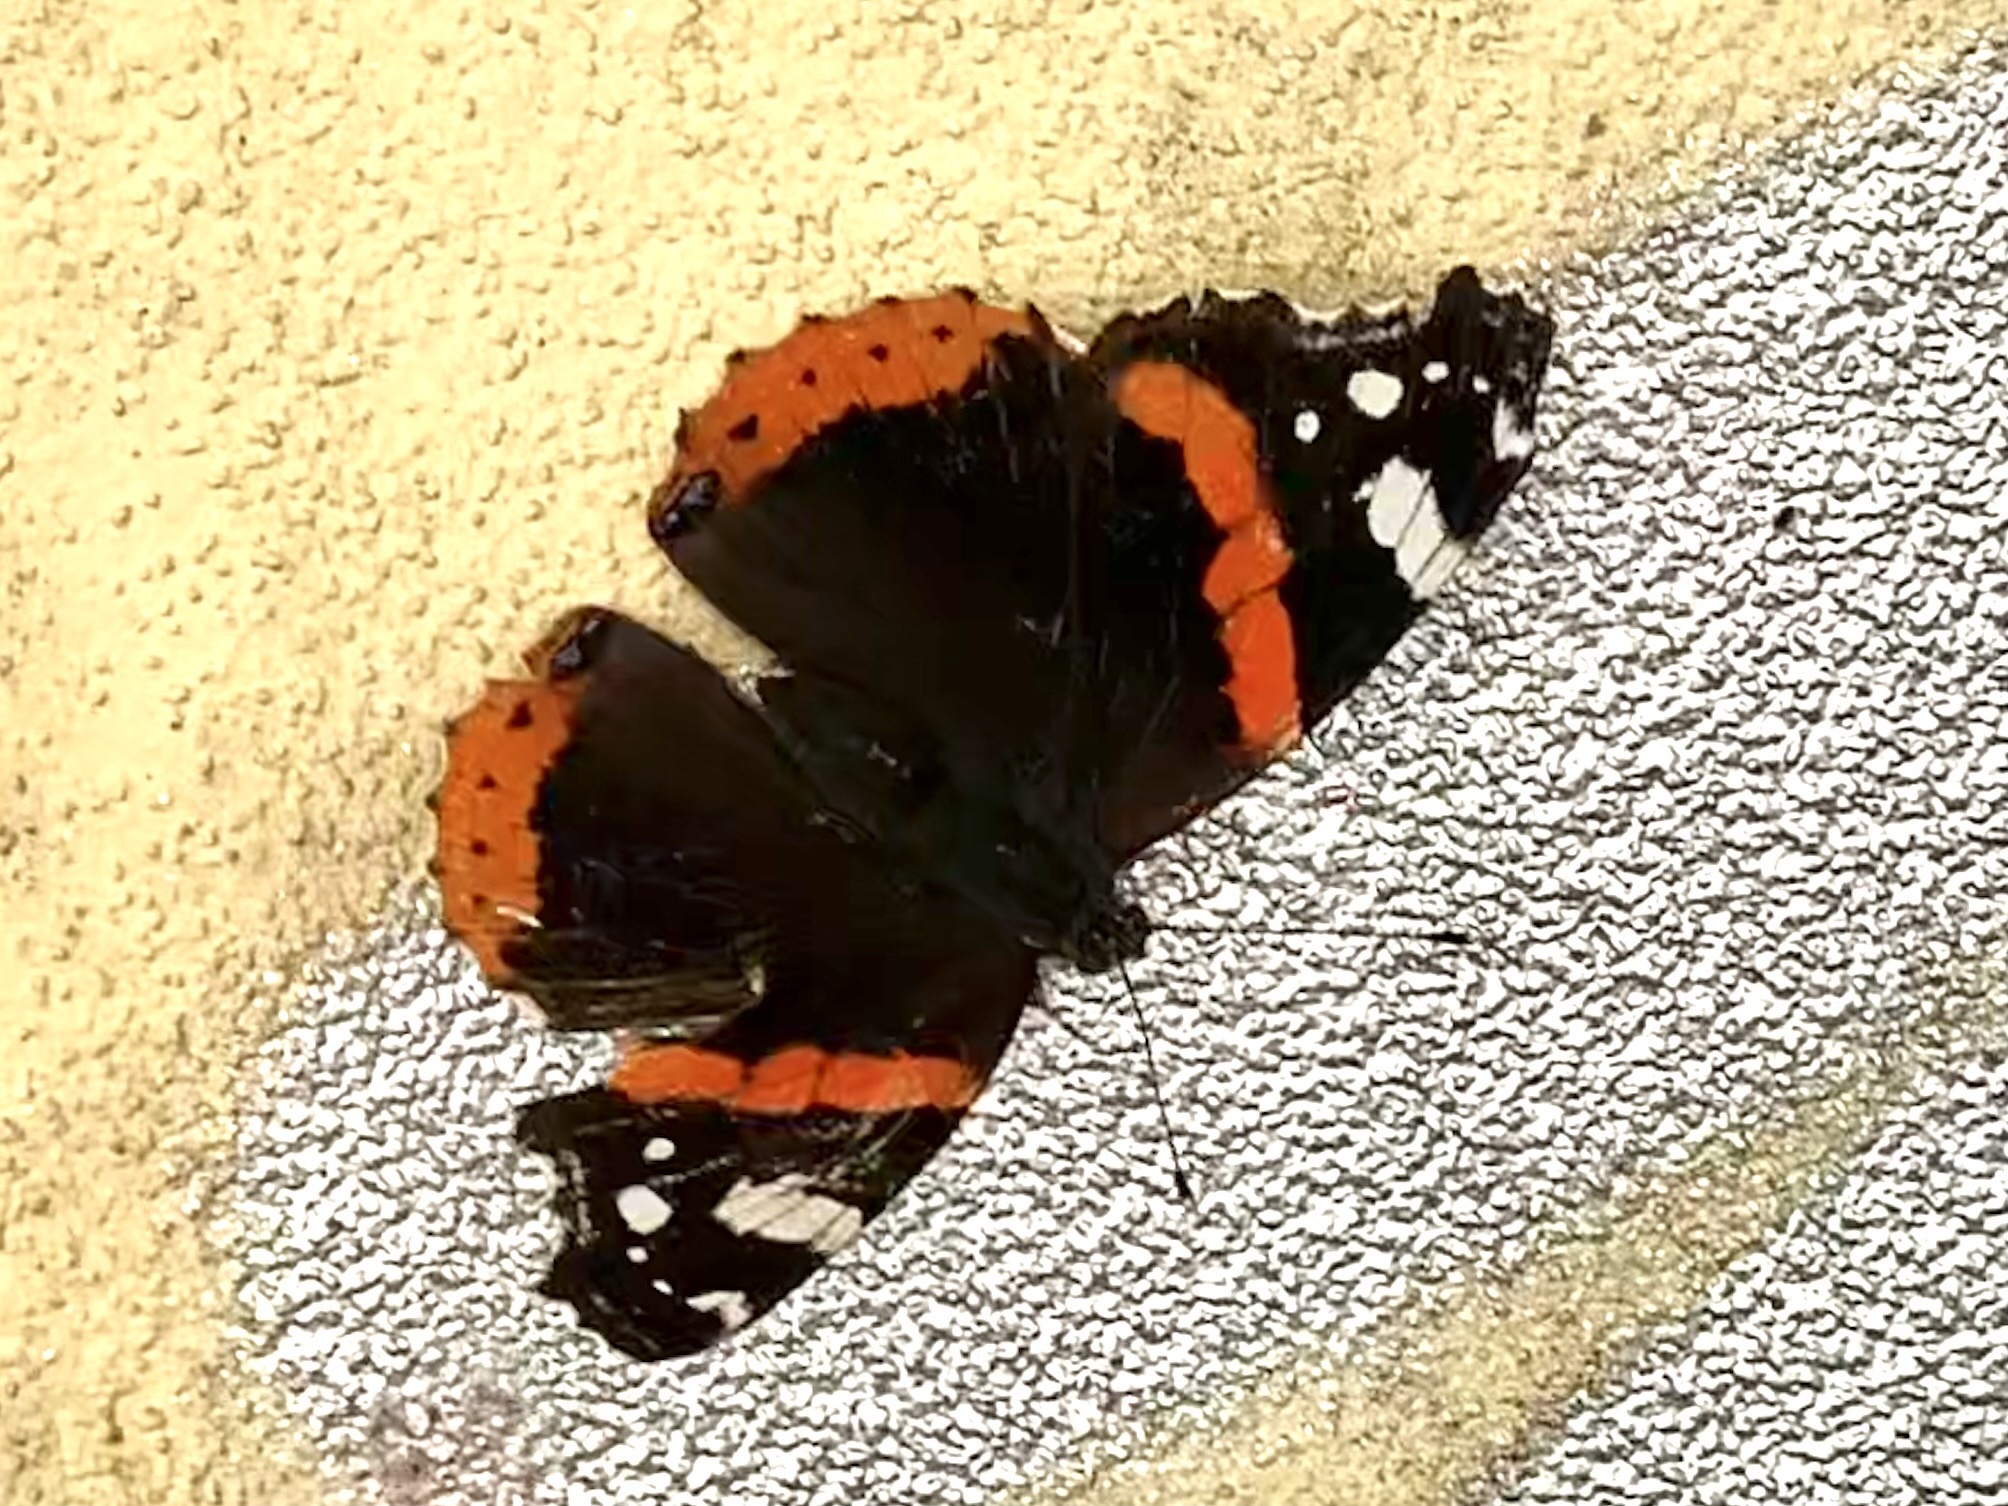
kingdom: Animalia
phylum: Arthropoda
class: Insecta
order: Lepidoptera
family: Nymphalidae
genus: Vanessa
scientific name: Vanessa atalanta
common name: Red admiral
